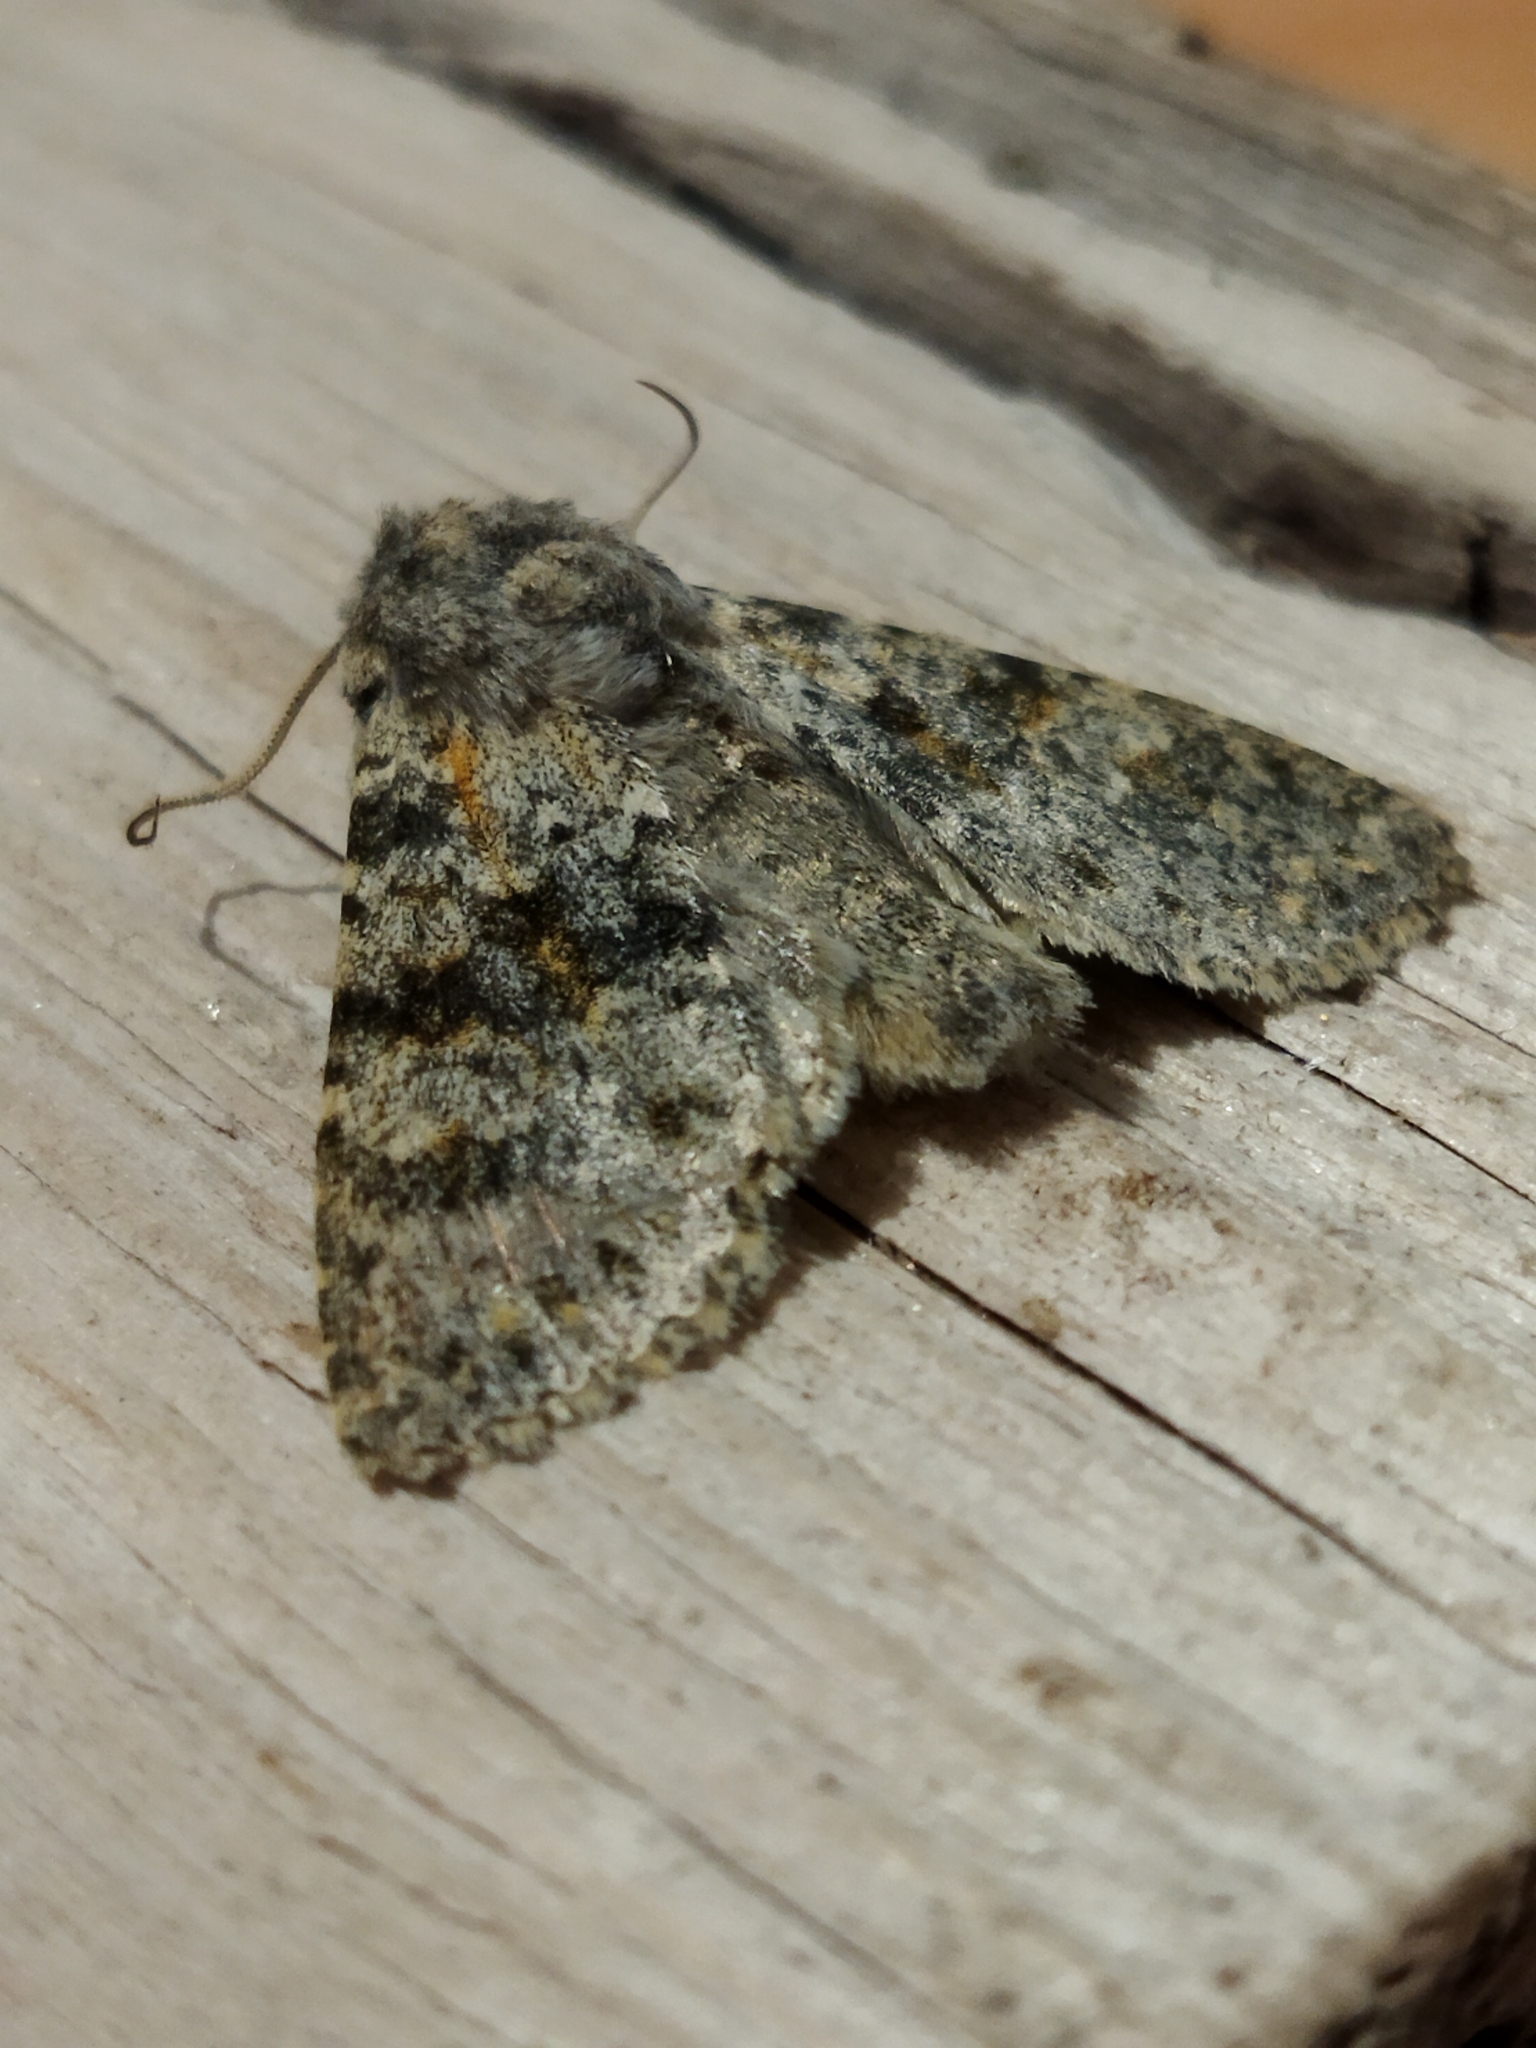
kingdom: Animalia
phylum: Arthropoda
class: Insecta
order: Lepidoptera
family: Noctuidae
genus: Polymixis
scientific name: Polymixis rufocincta
